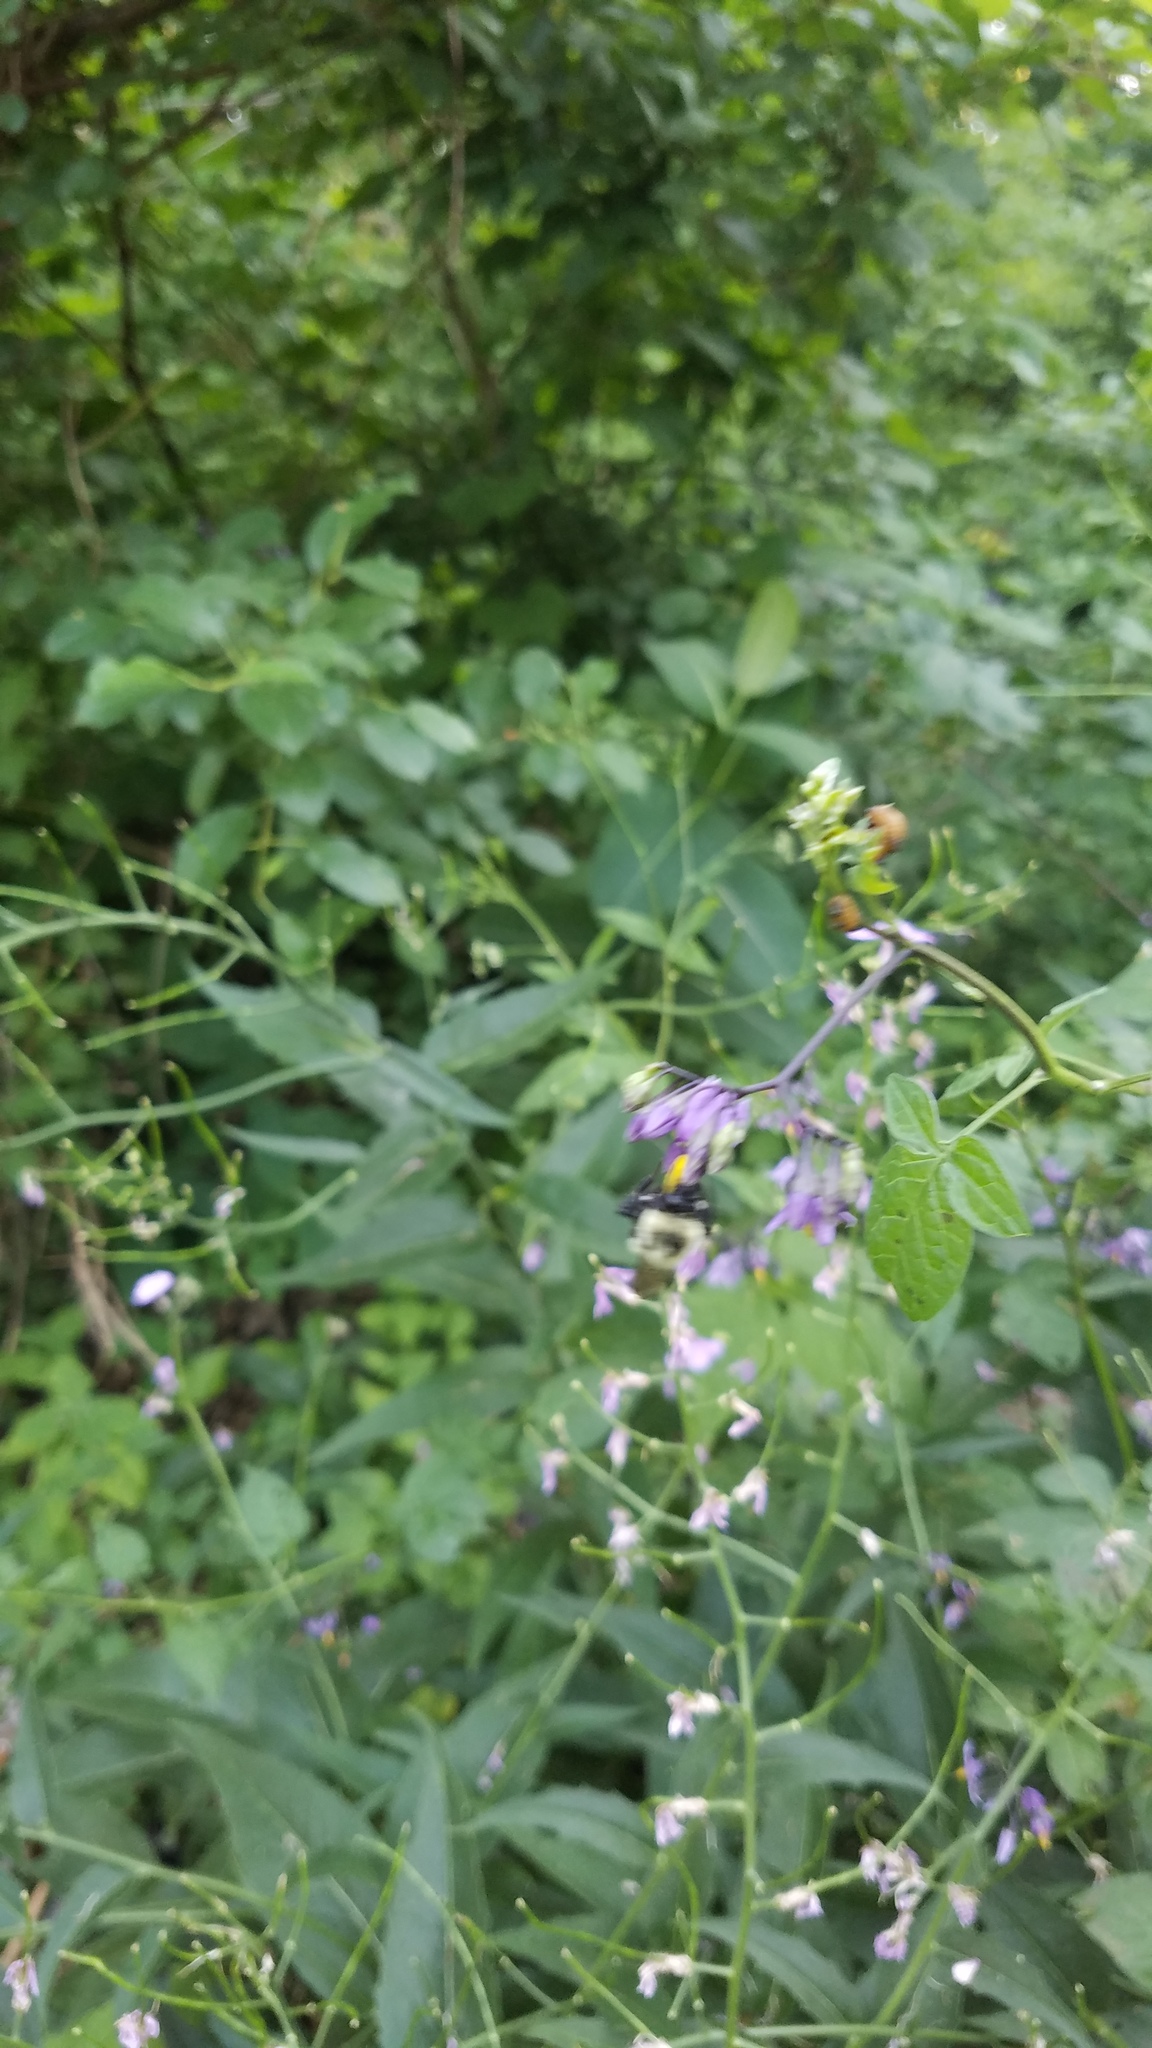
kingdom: Animalia
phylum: Arthropoda
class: Insecta
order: Hymenoptera
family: Apidae
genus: Bombus
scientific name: Bombus impatiens
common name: Common eastern bumble bee
